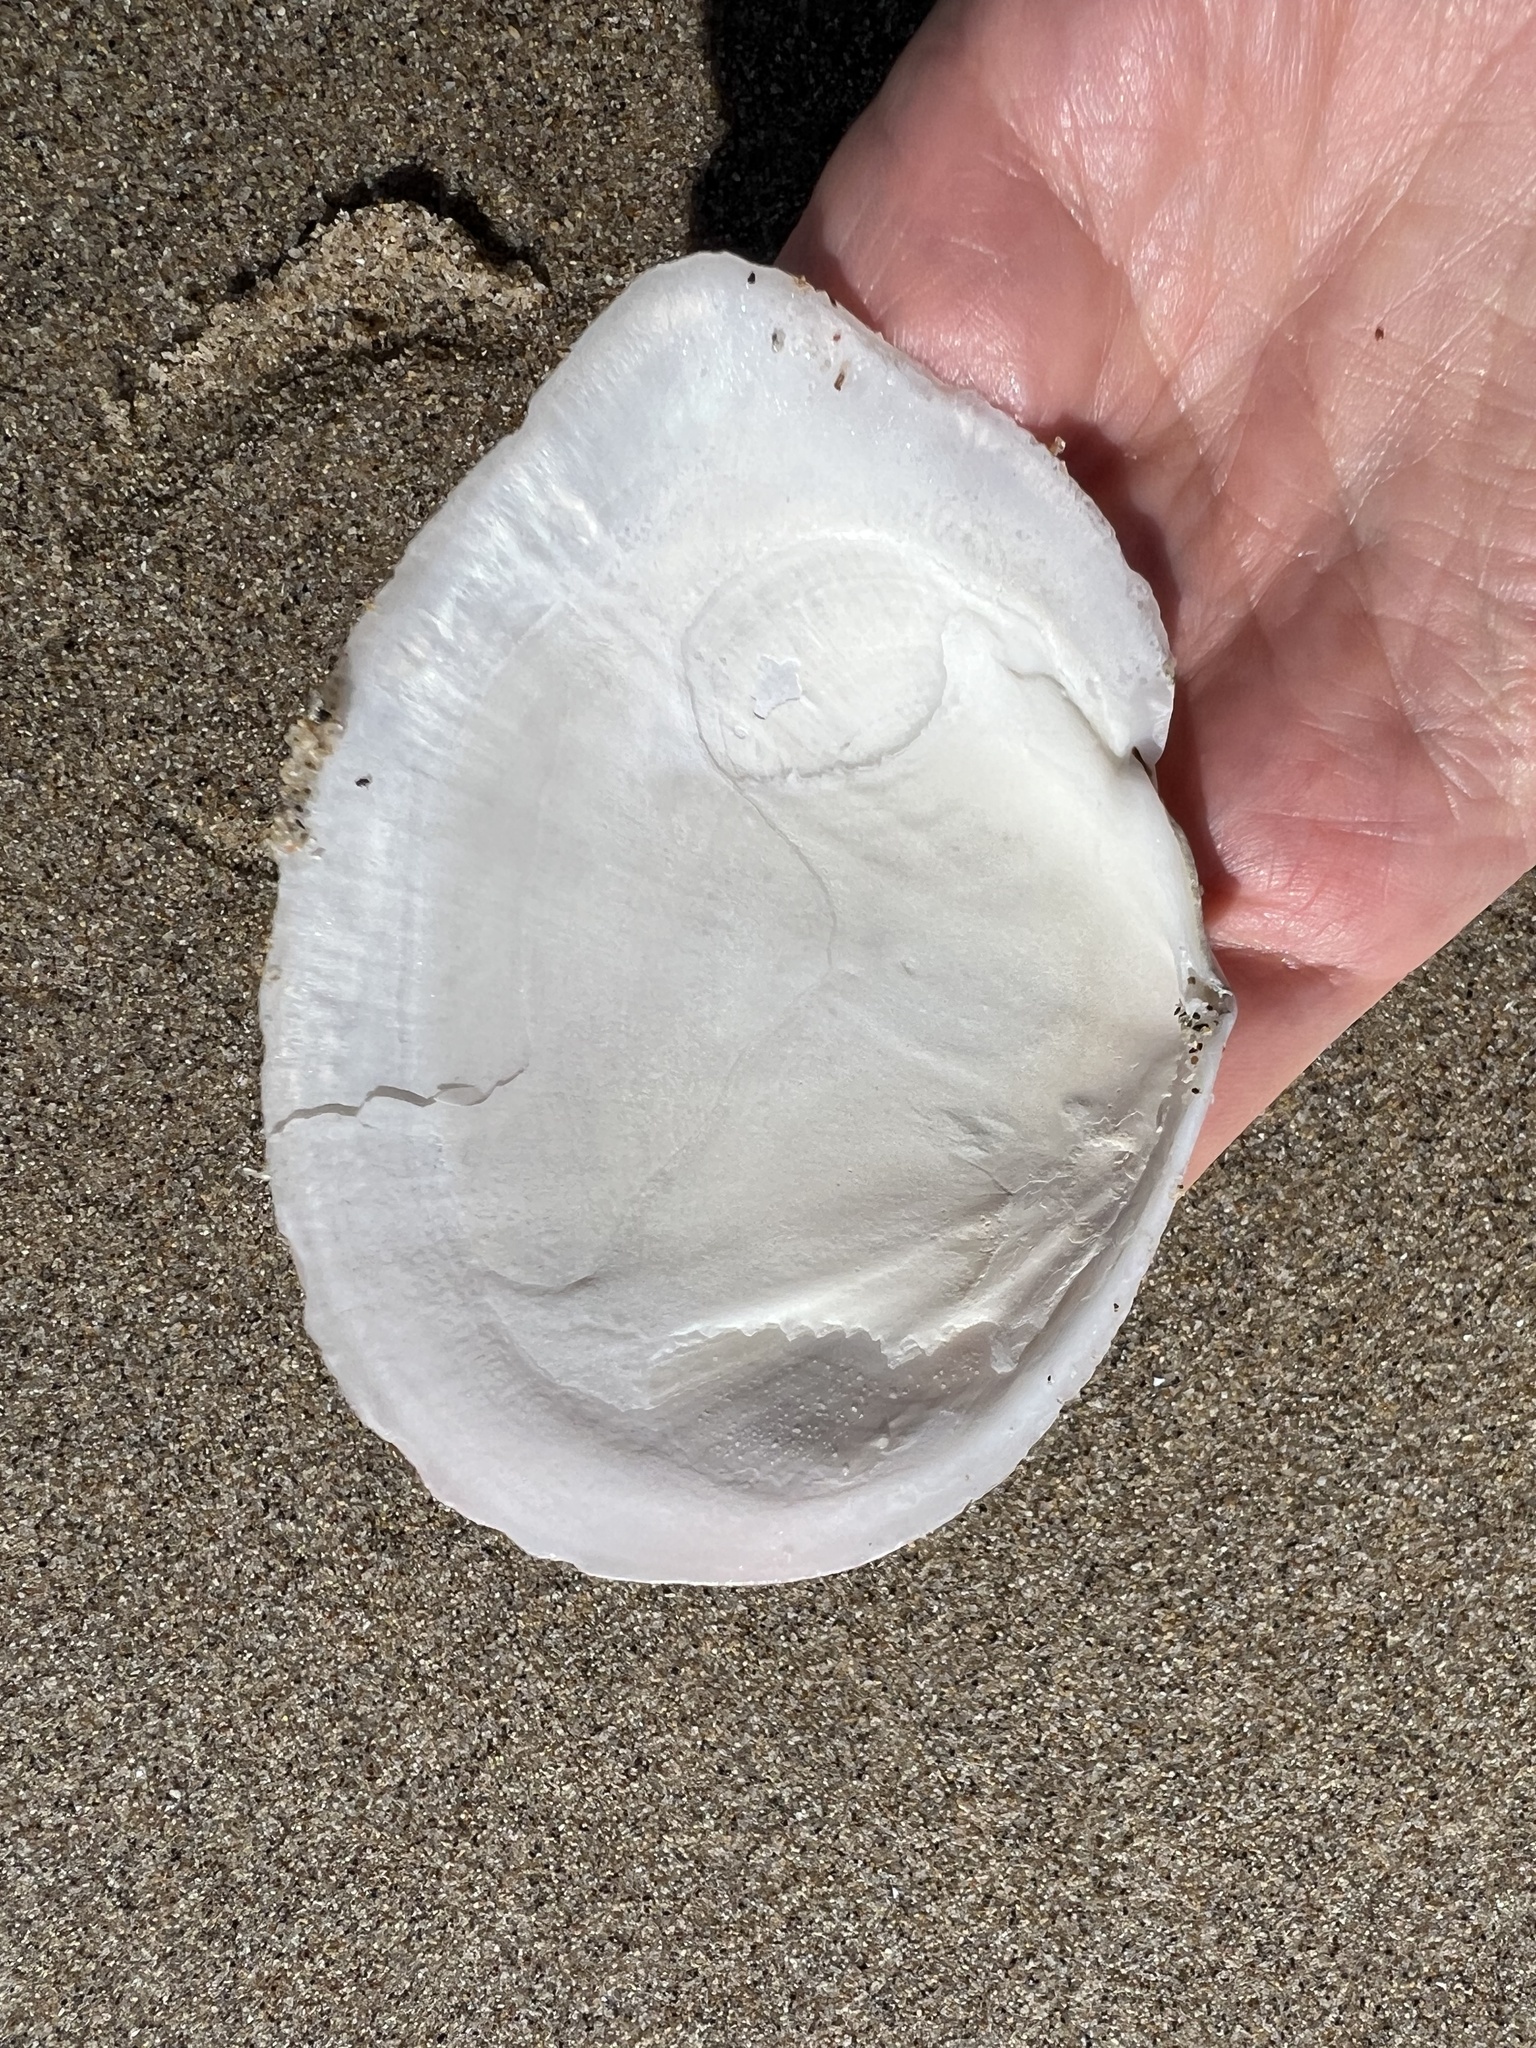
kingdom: Animalia
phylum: Mollusca
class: Bivalvia
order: Cardiida
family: Tellinidae
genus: Rexithaerus
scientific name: Rexithaerus secta
